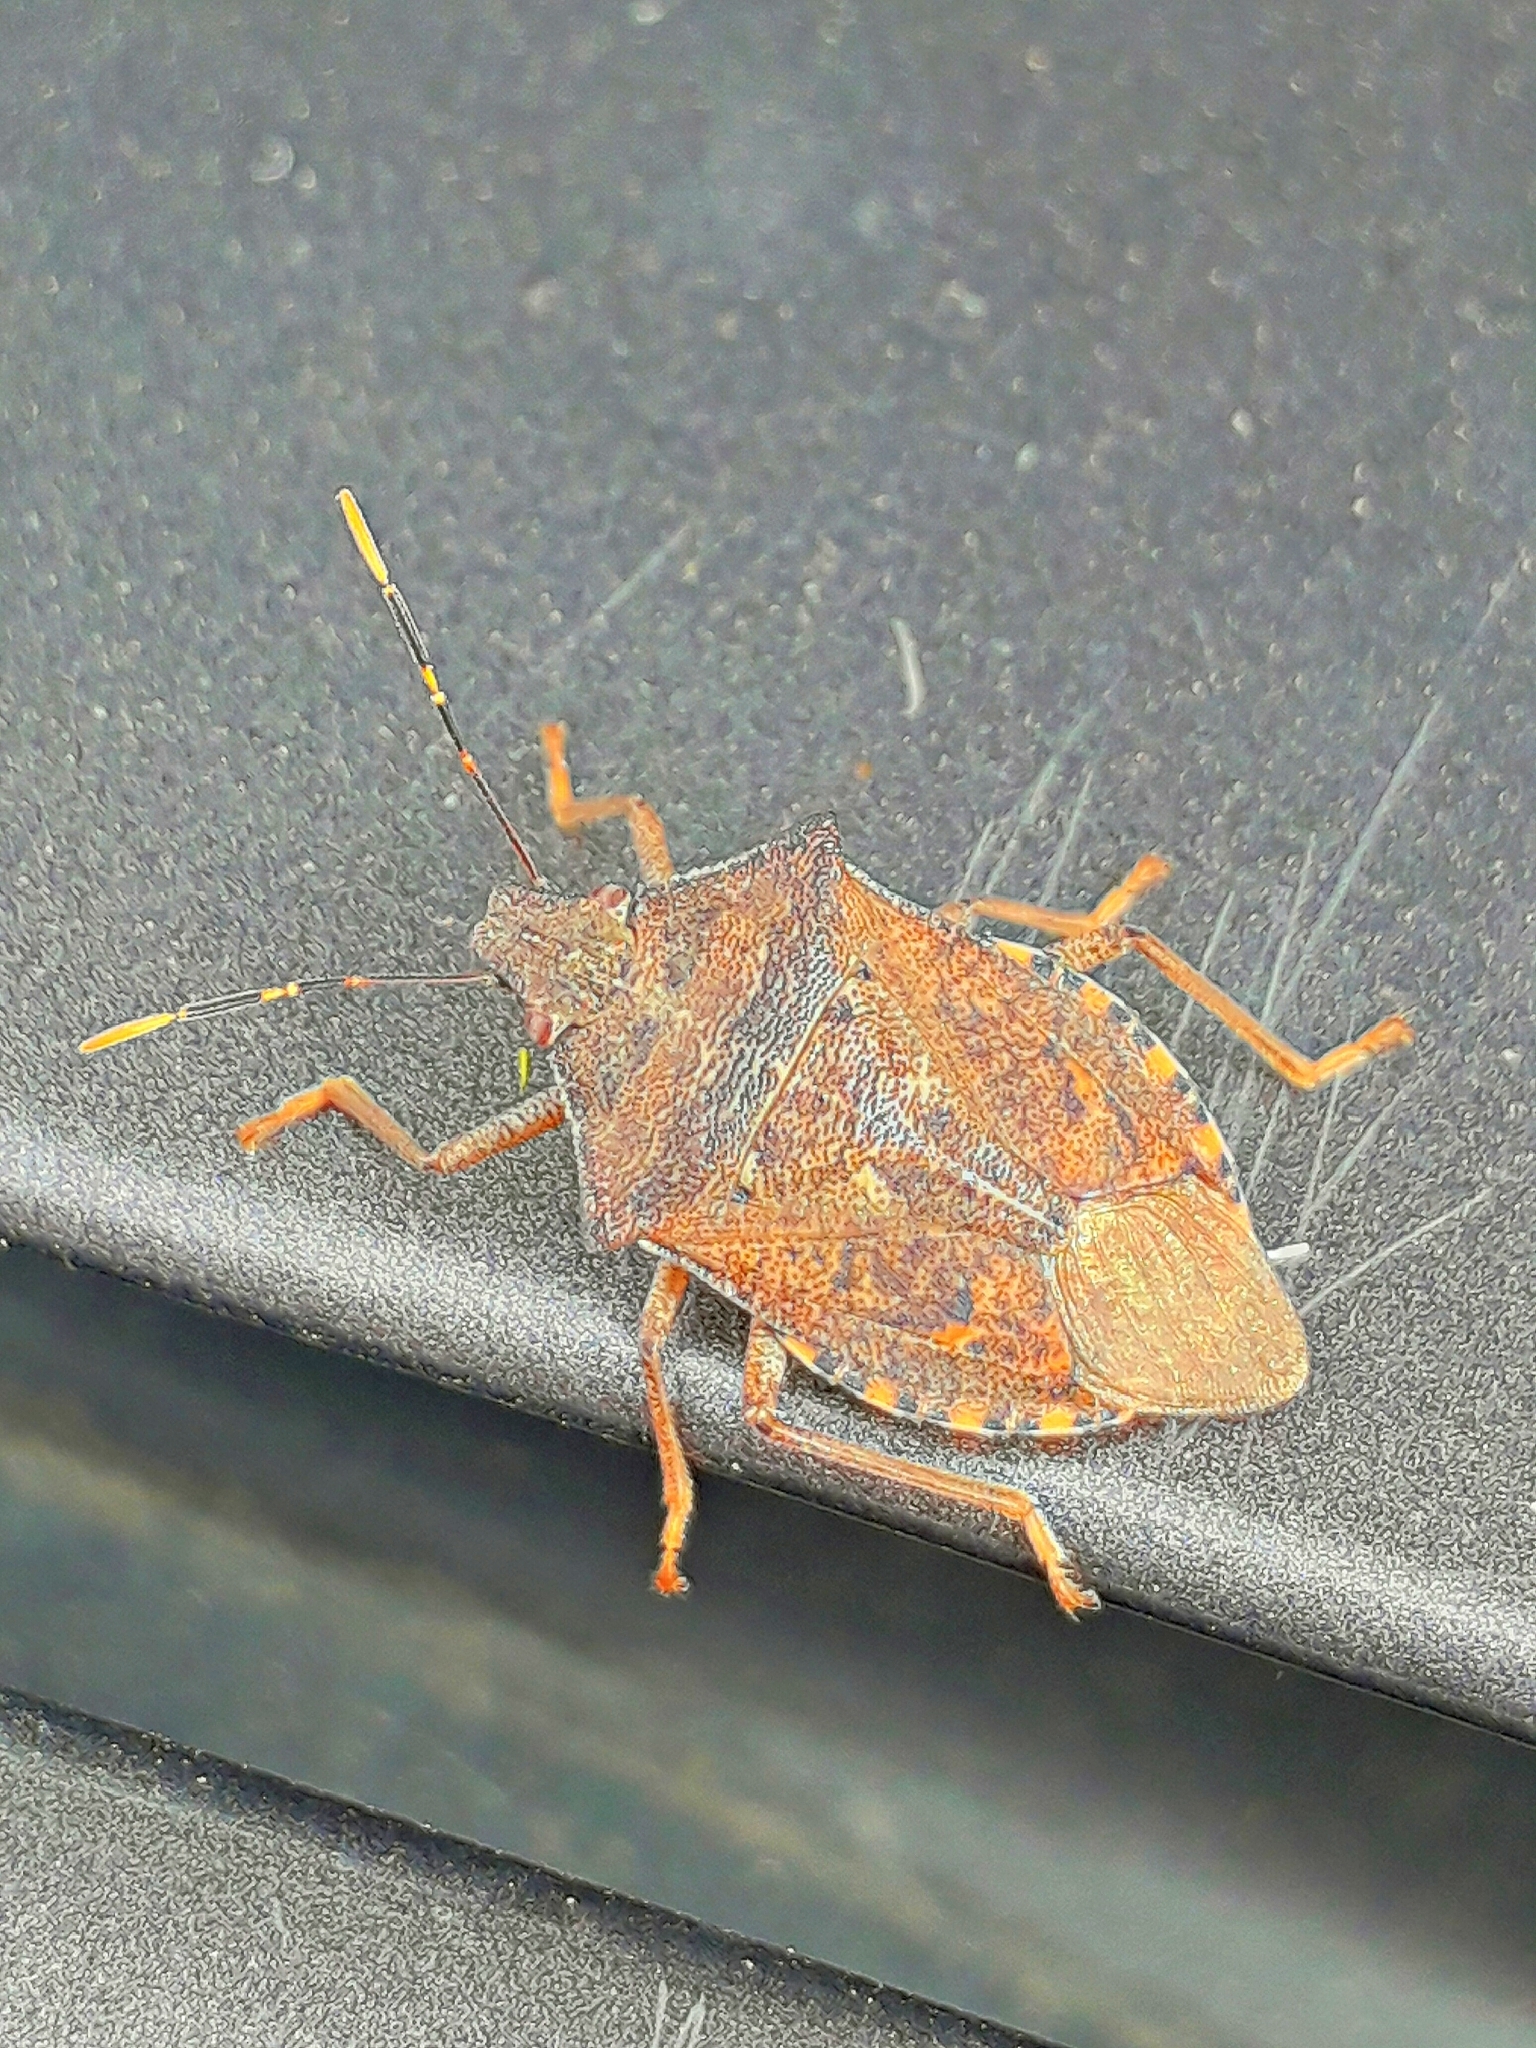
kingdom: Animalia
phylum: Arthropoda
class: Insecta
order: Hemiptera
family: Pentatomidae
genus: Arma
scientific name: Arma custos
